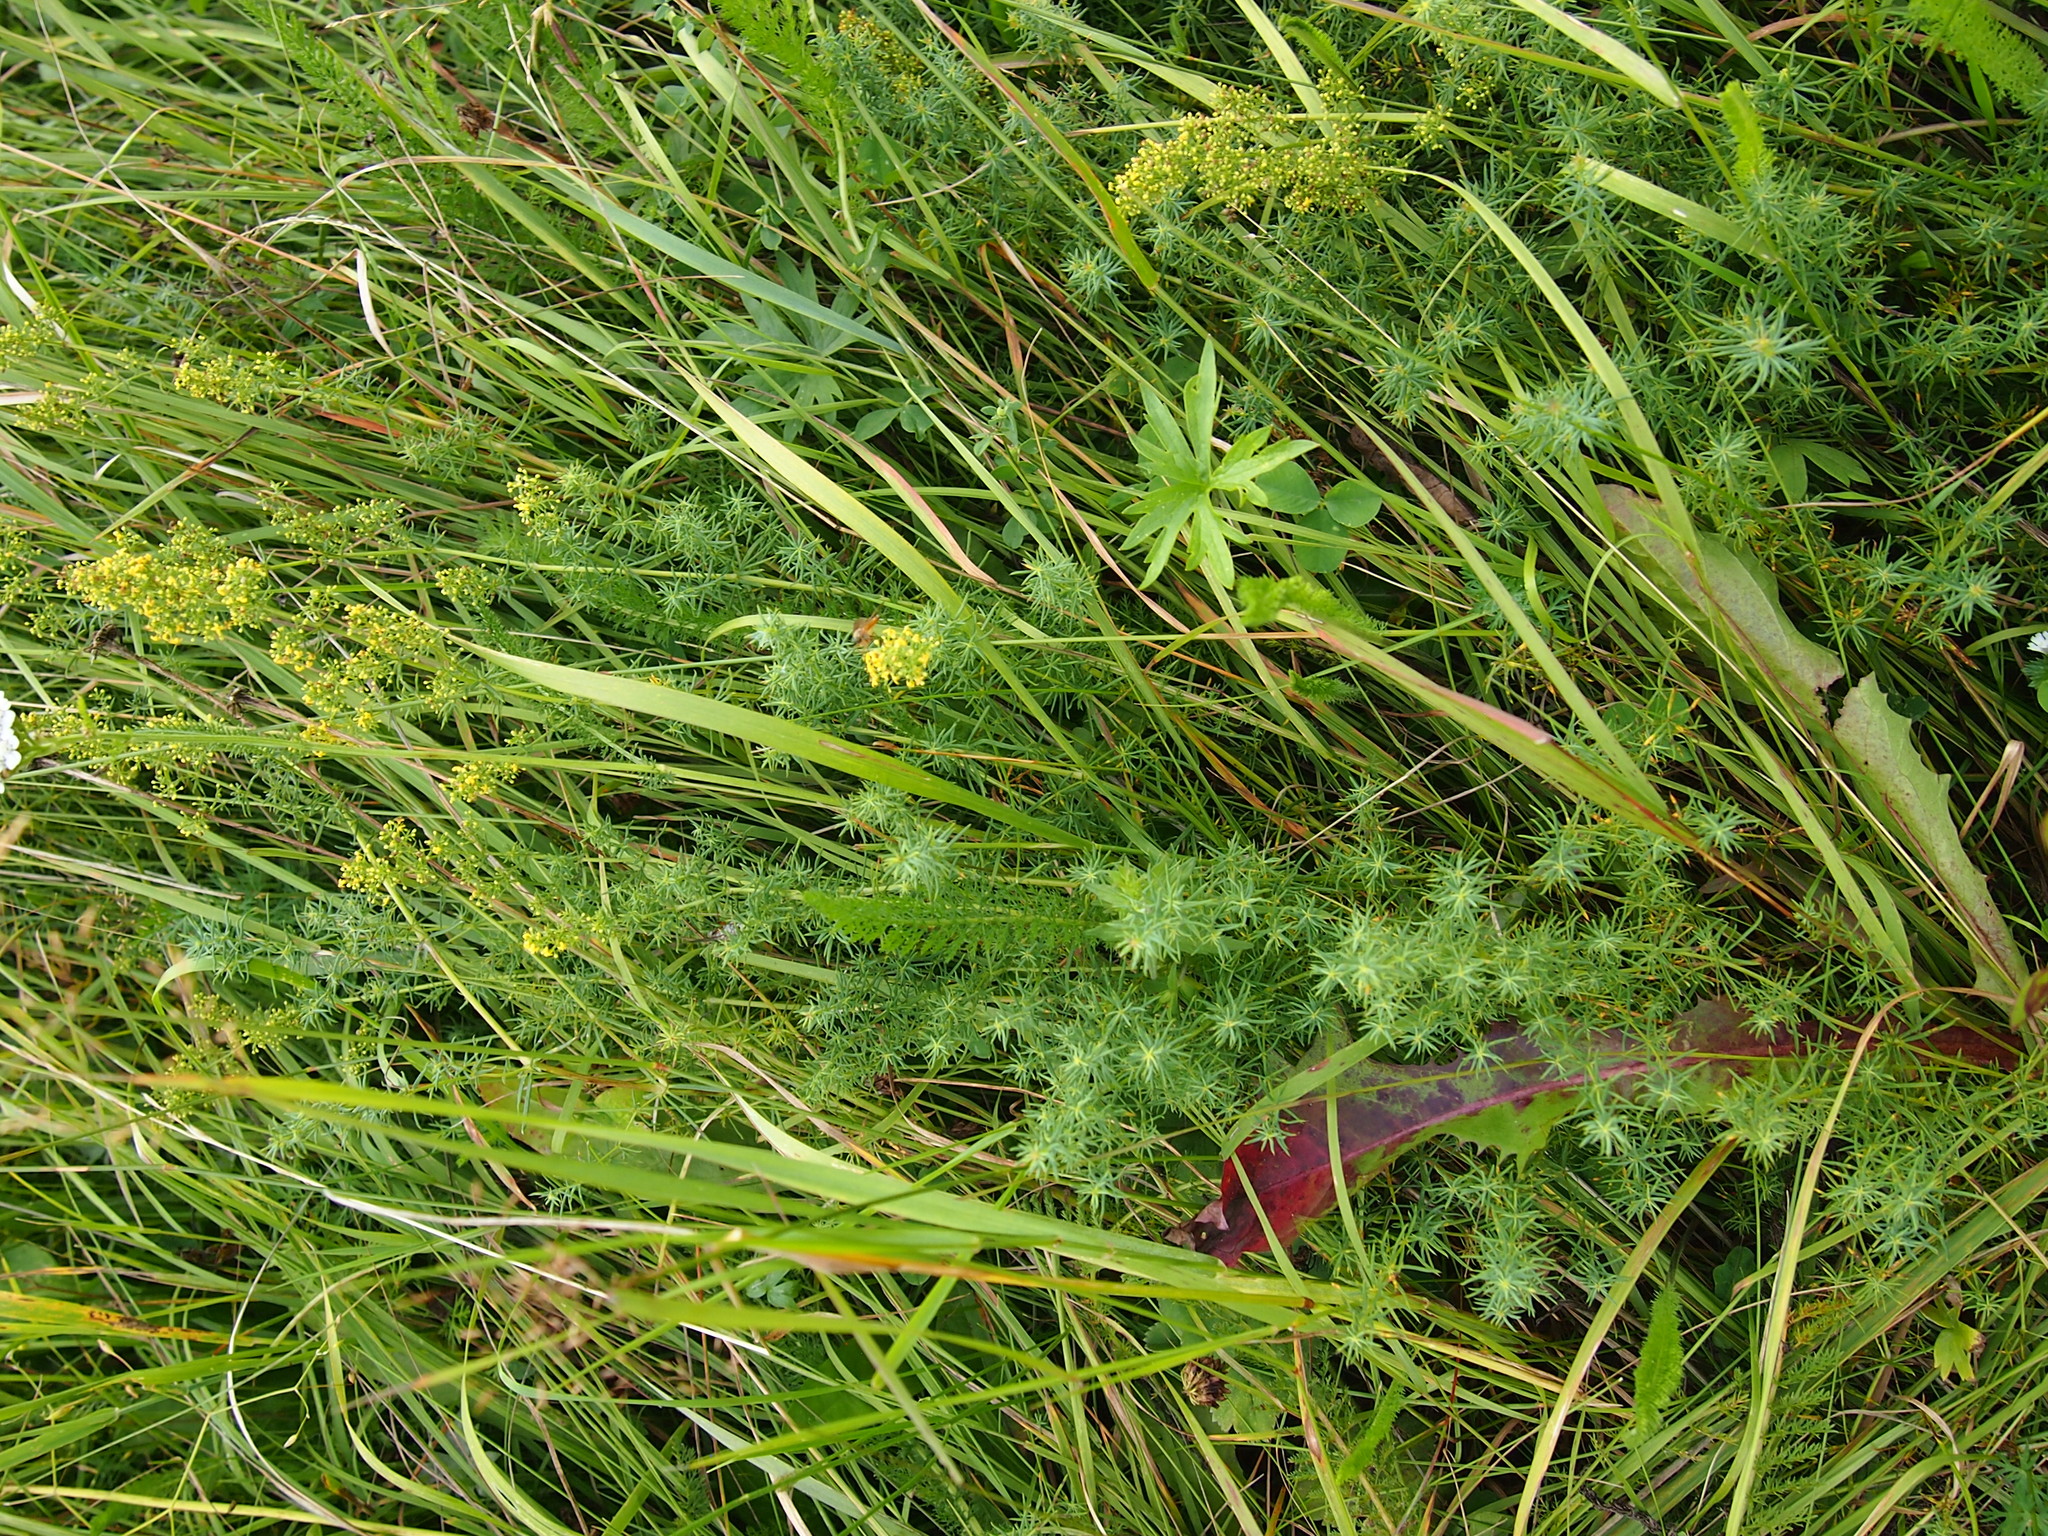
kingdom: Plantae
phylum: Tracheophyta
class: Magnoliopsida
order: Gentianales
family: Rubiaceae
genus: Galium
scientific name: Galium verum
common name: Lady's bedstraw
